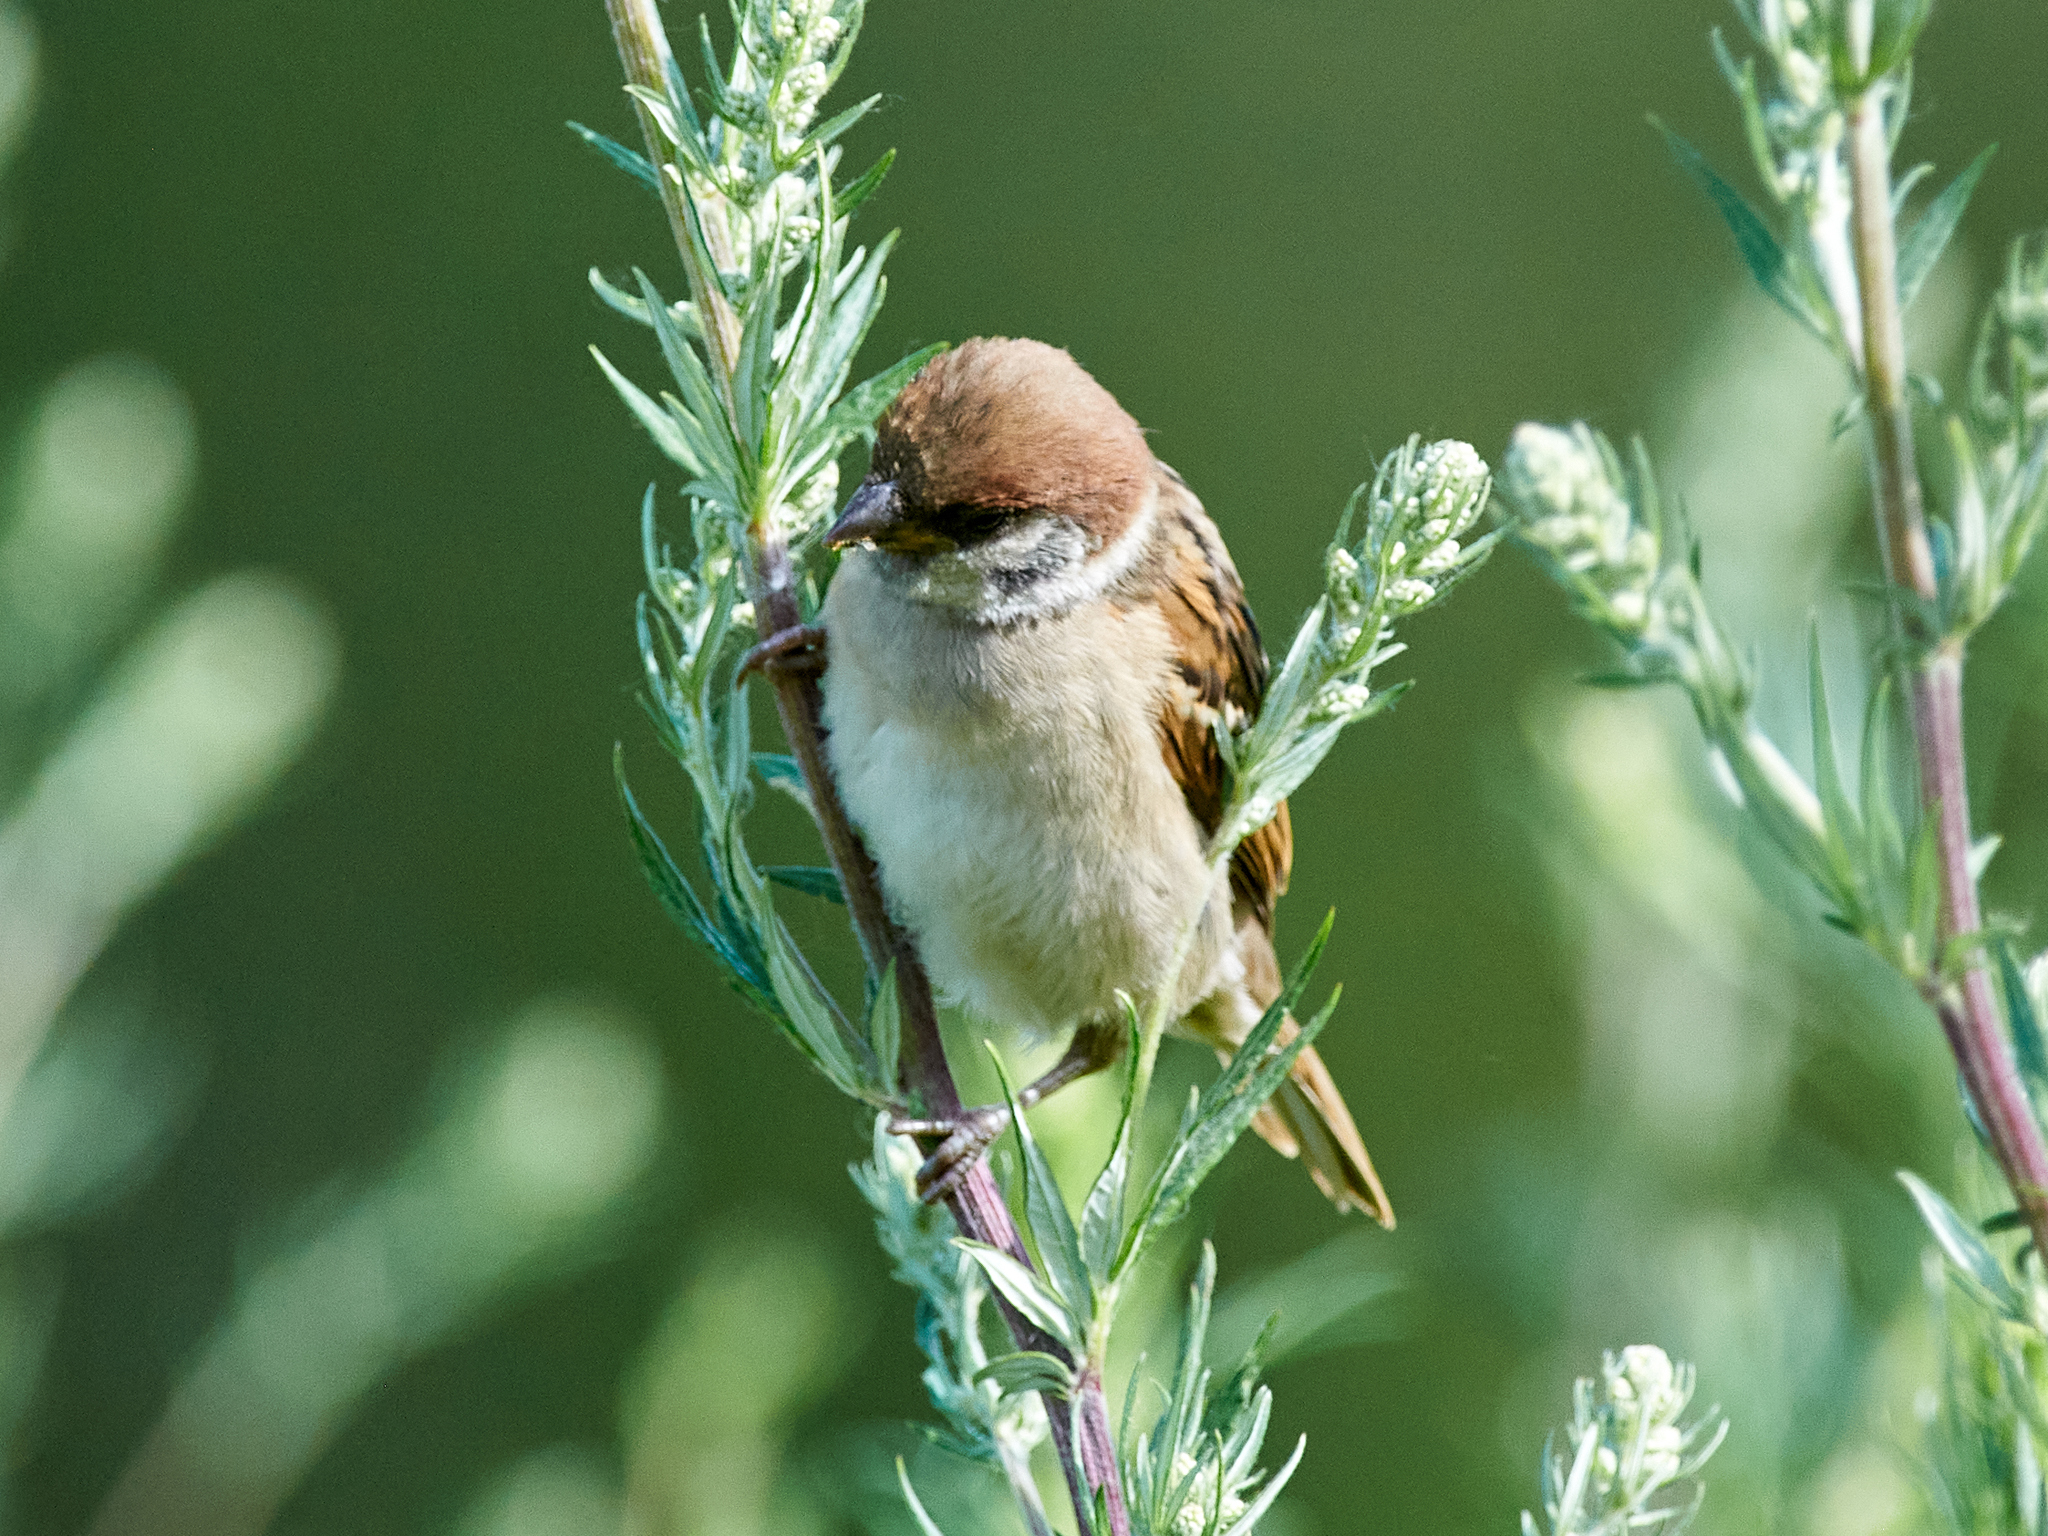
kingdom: Animalia
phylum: Chordata
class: Aves
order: Passeriformes
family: Passeridae
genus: Passer
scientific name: Passer montanus
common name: Eurasian tree sparrow
